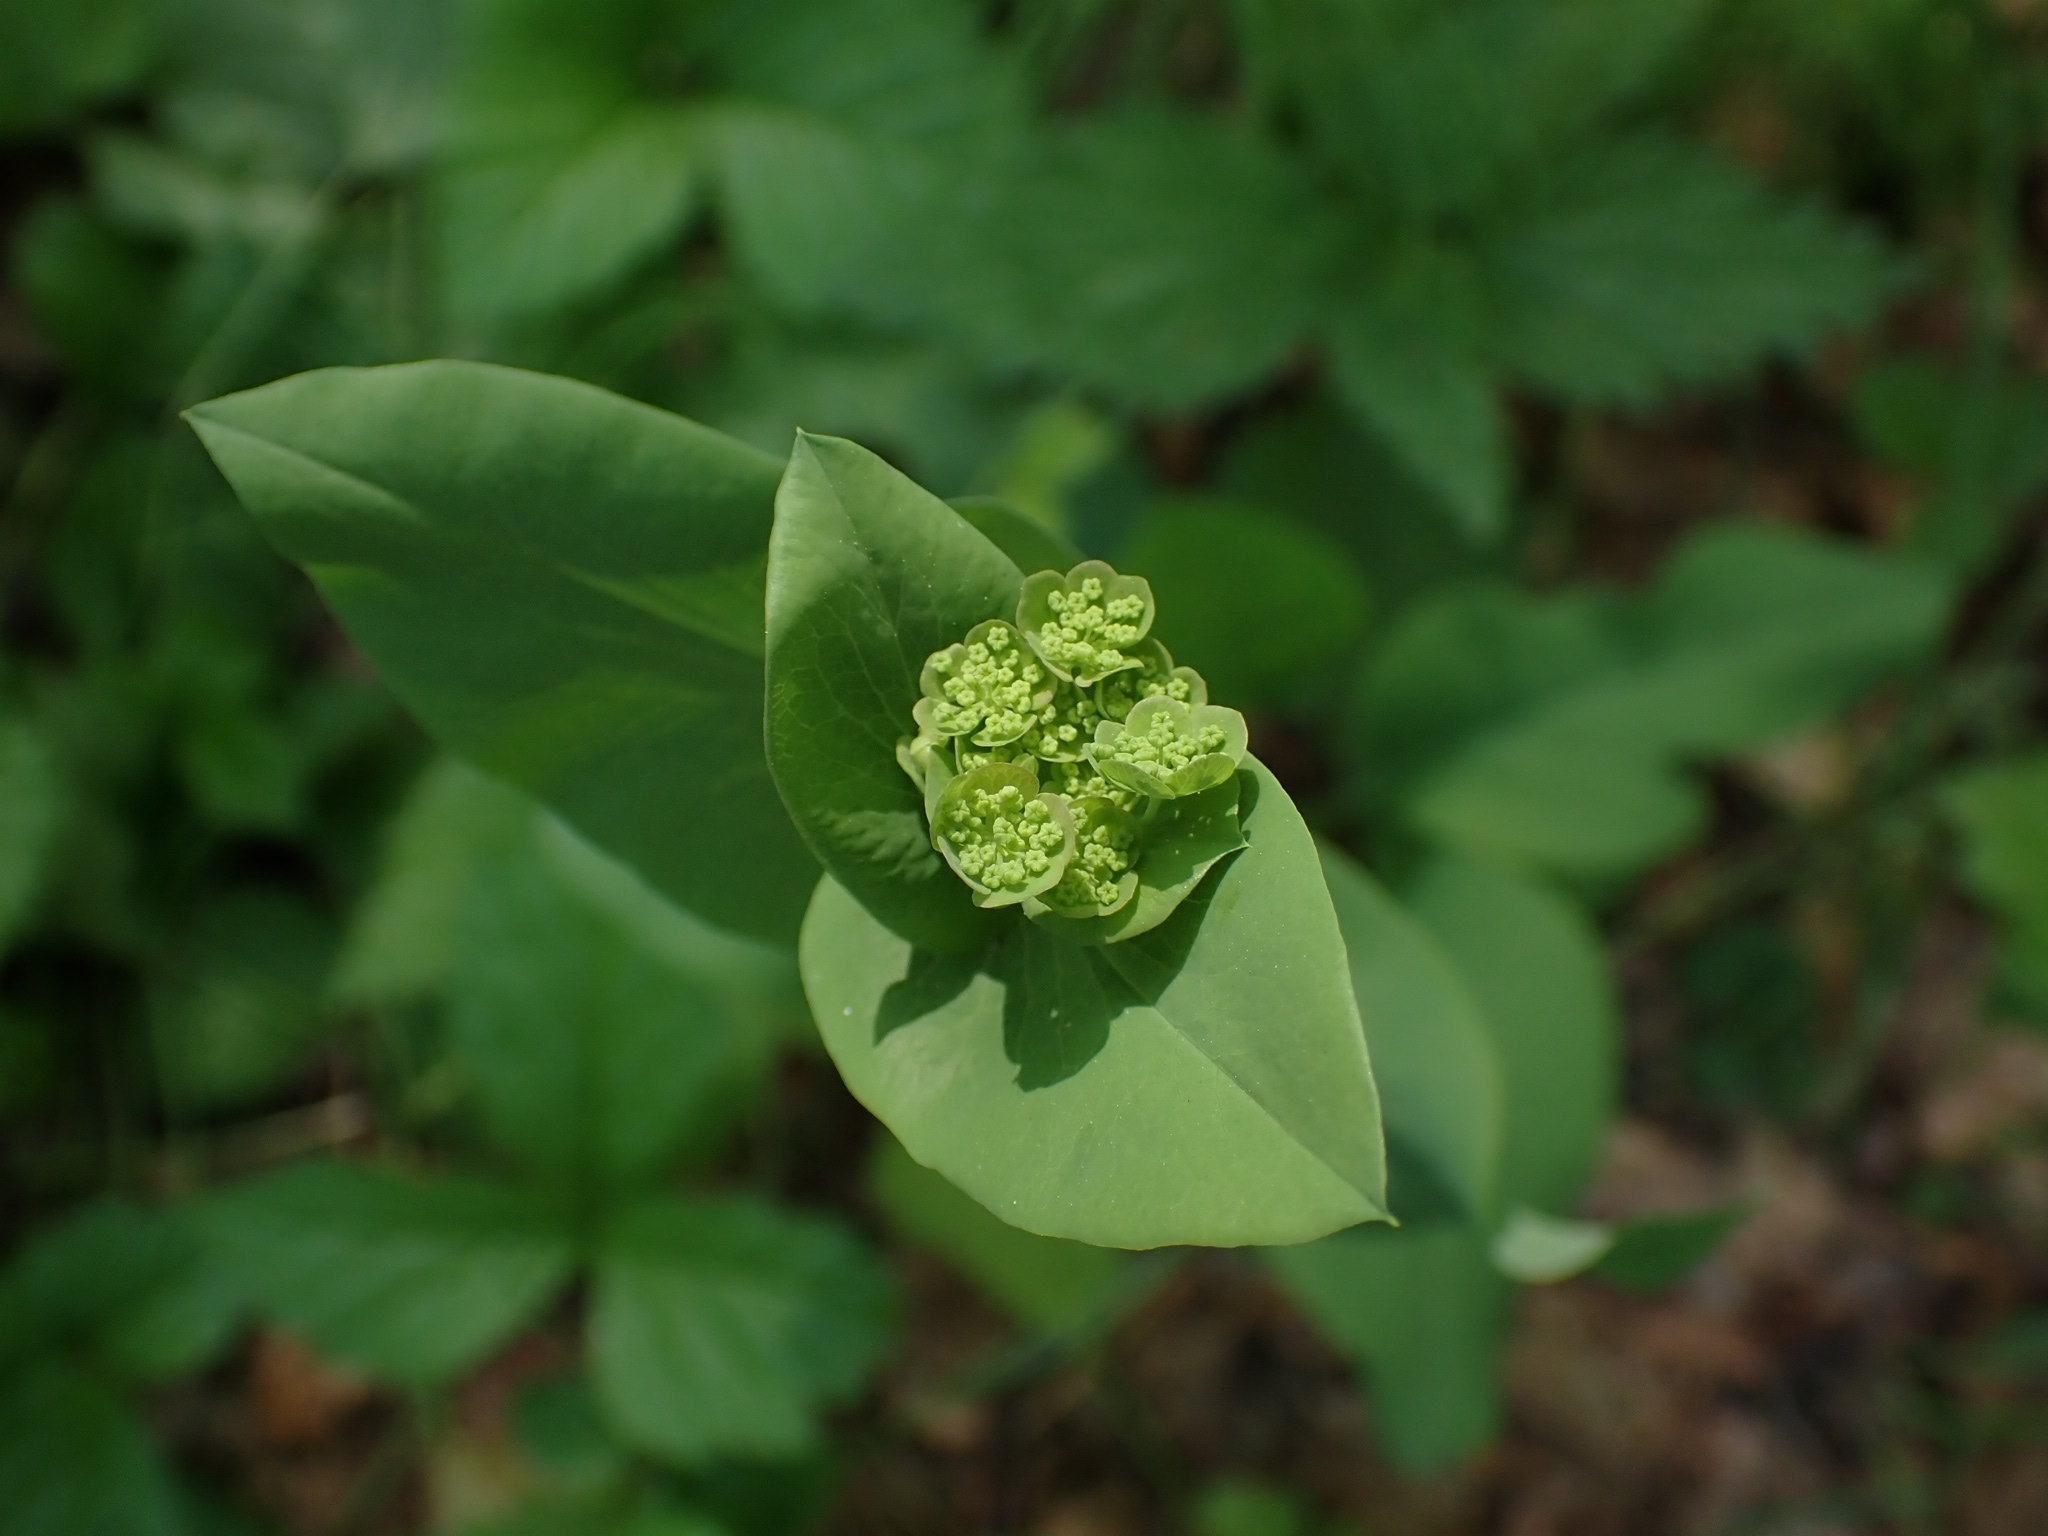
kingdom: Plantae
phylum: Tracheophyta
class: Magnoliopsida
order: Apiales
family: Apiaceae
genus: Bupleurum
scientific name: Bupleurum aureum
